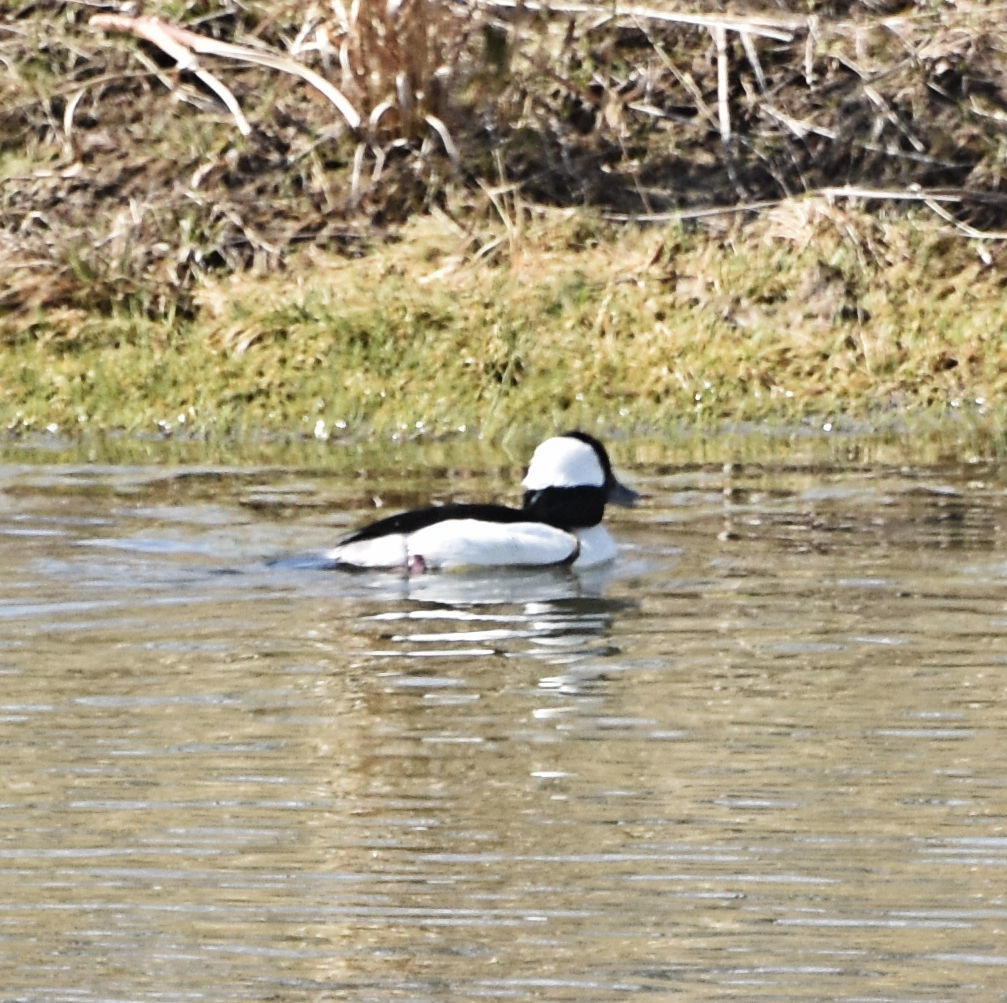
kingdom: Animalia
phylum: Chordata
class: Aves
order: Anseriformes
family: Anatidae
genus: Bucephala
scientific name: Bucephala albeola
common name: Bufflehead
